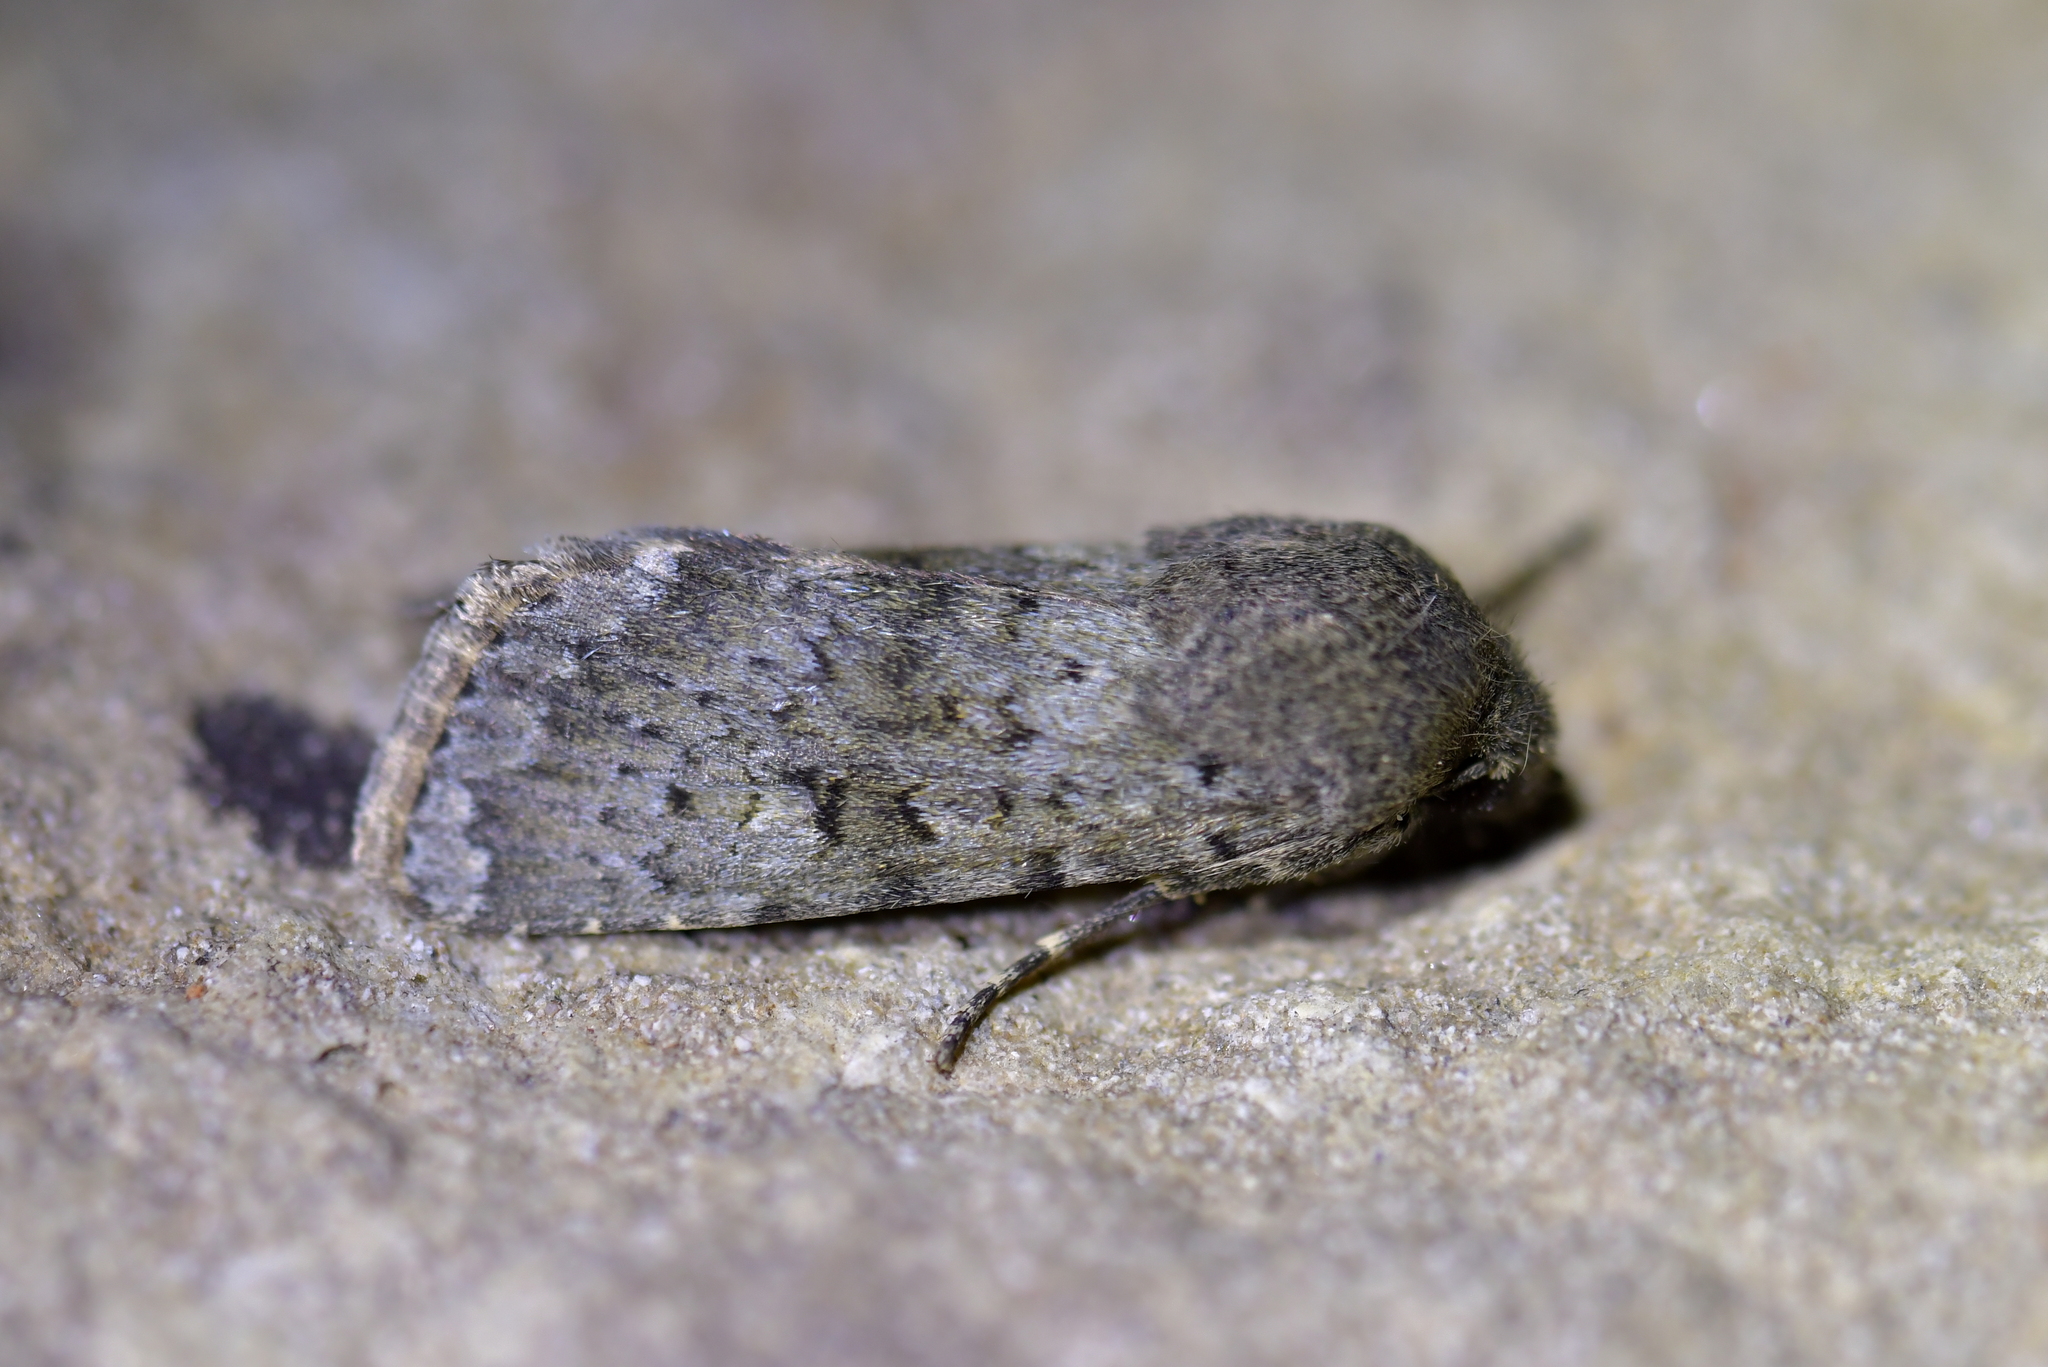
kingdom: Animalia
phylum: Arthropoda
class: Insecta
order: Lepidoptera
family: Noctuidae
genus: Ichneutica
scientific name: Ichneutica moderata
